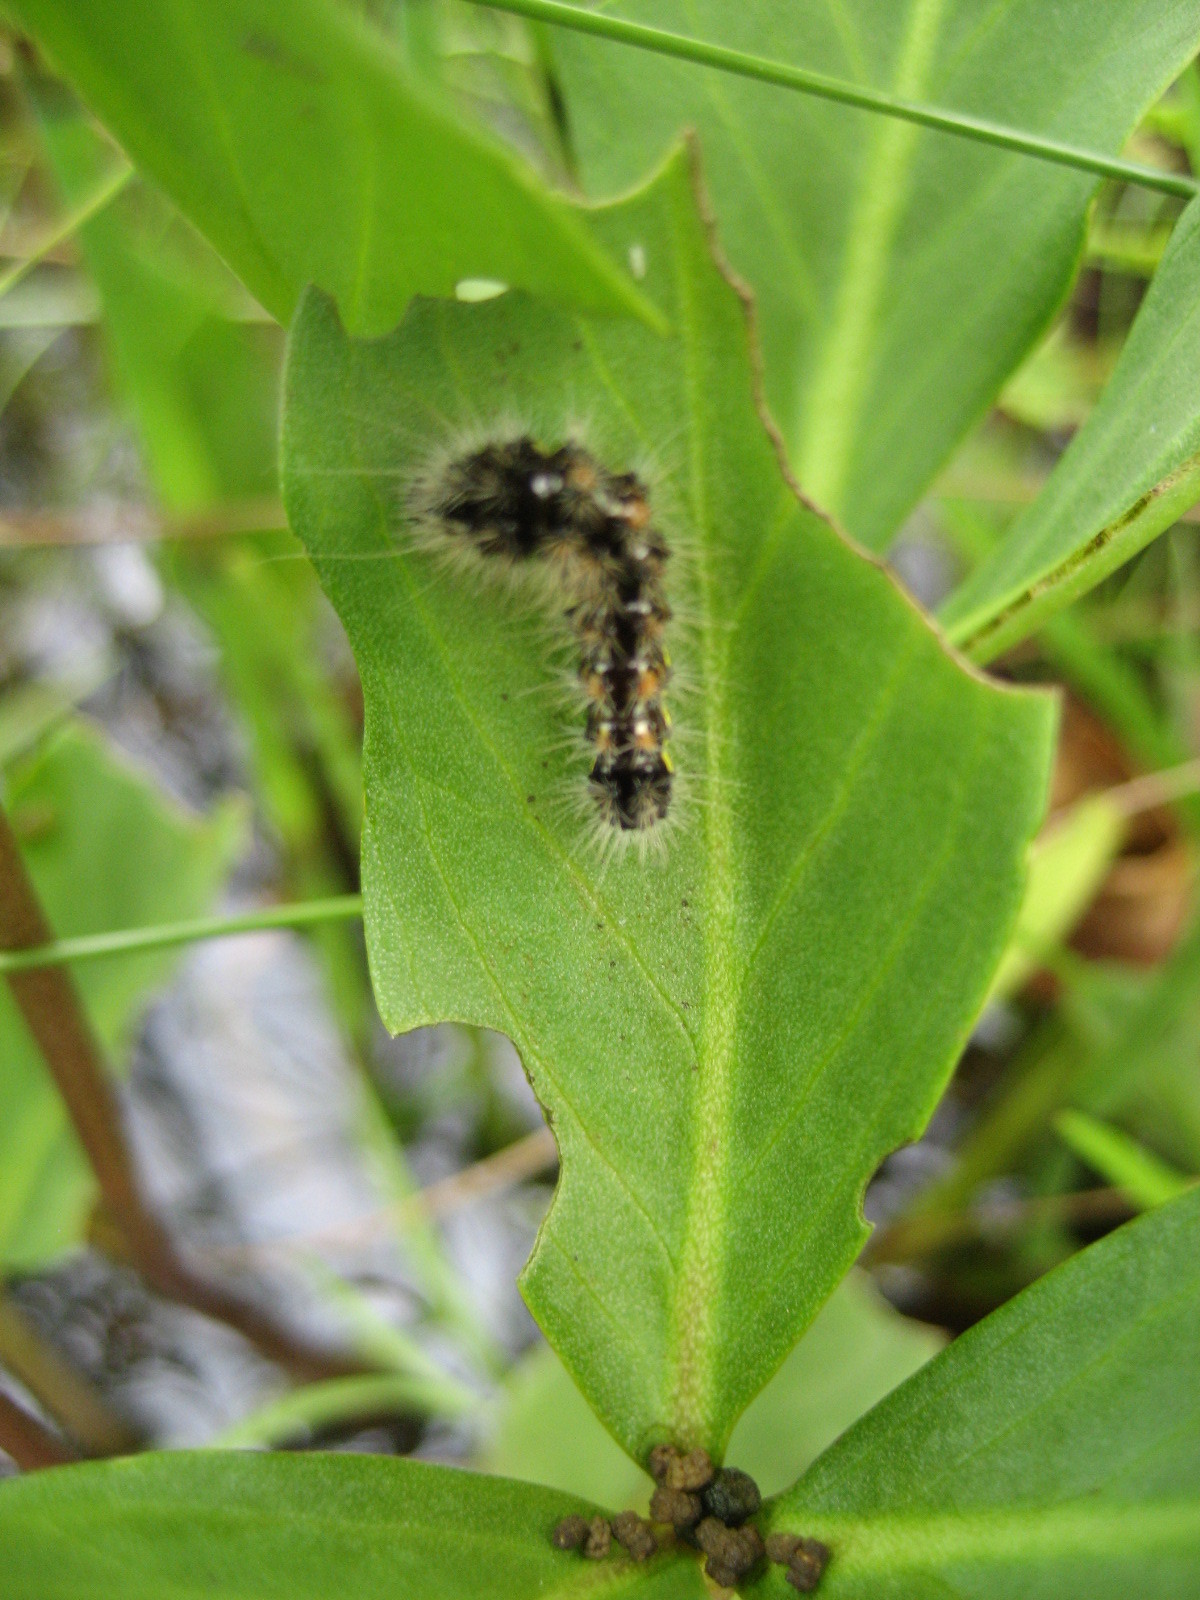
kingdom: Animalia
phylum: Arthropoda
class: Insecta
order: Lepidoptera
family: Noctuidae
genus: Acronicta
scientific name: Acronicta oblinita
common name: Smeared dagger
